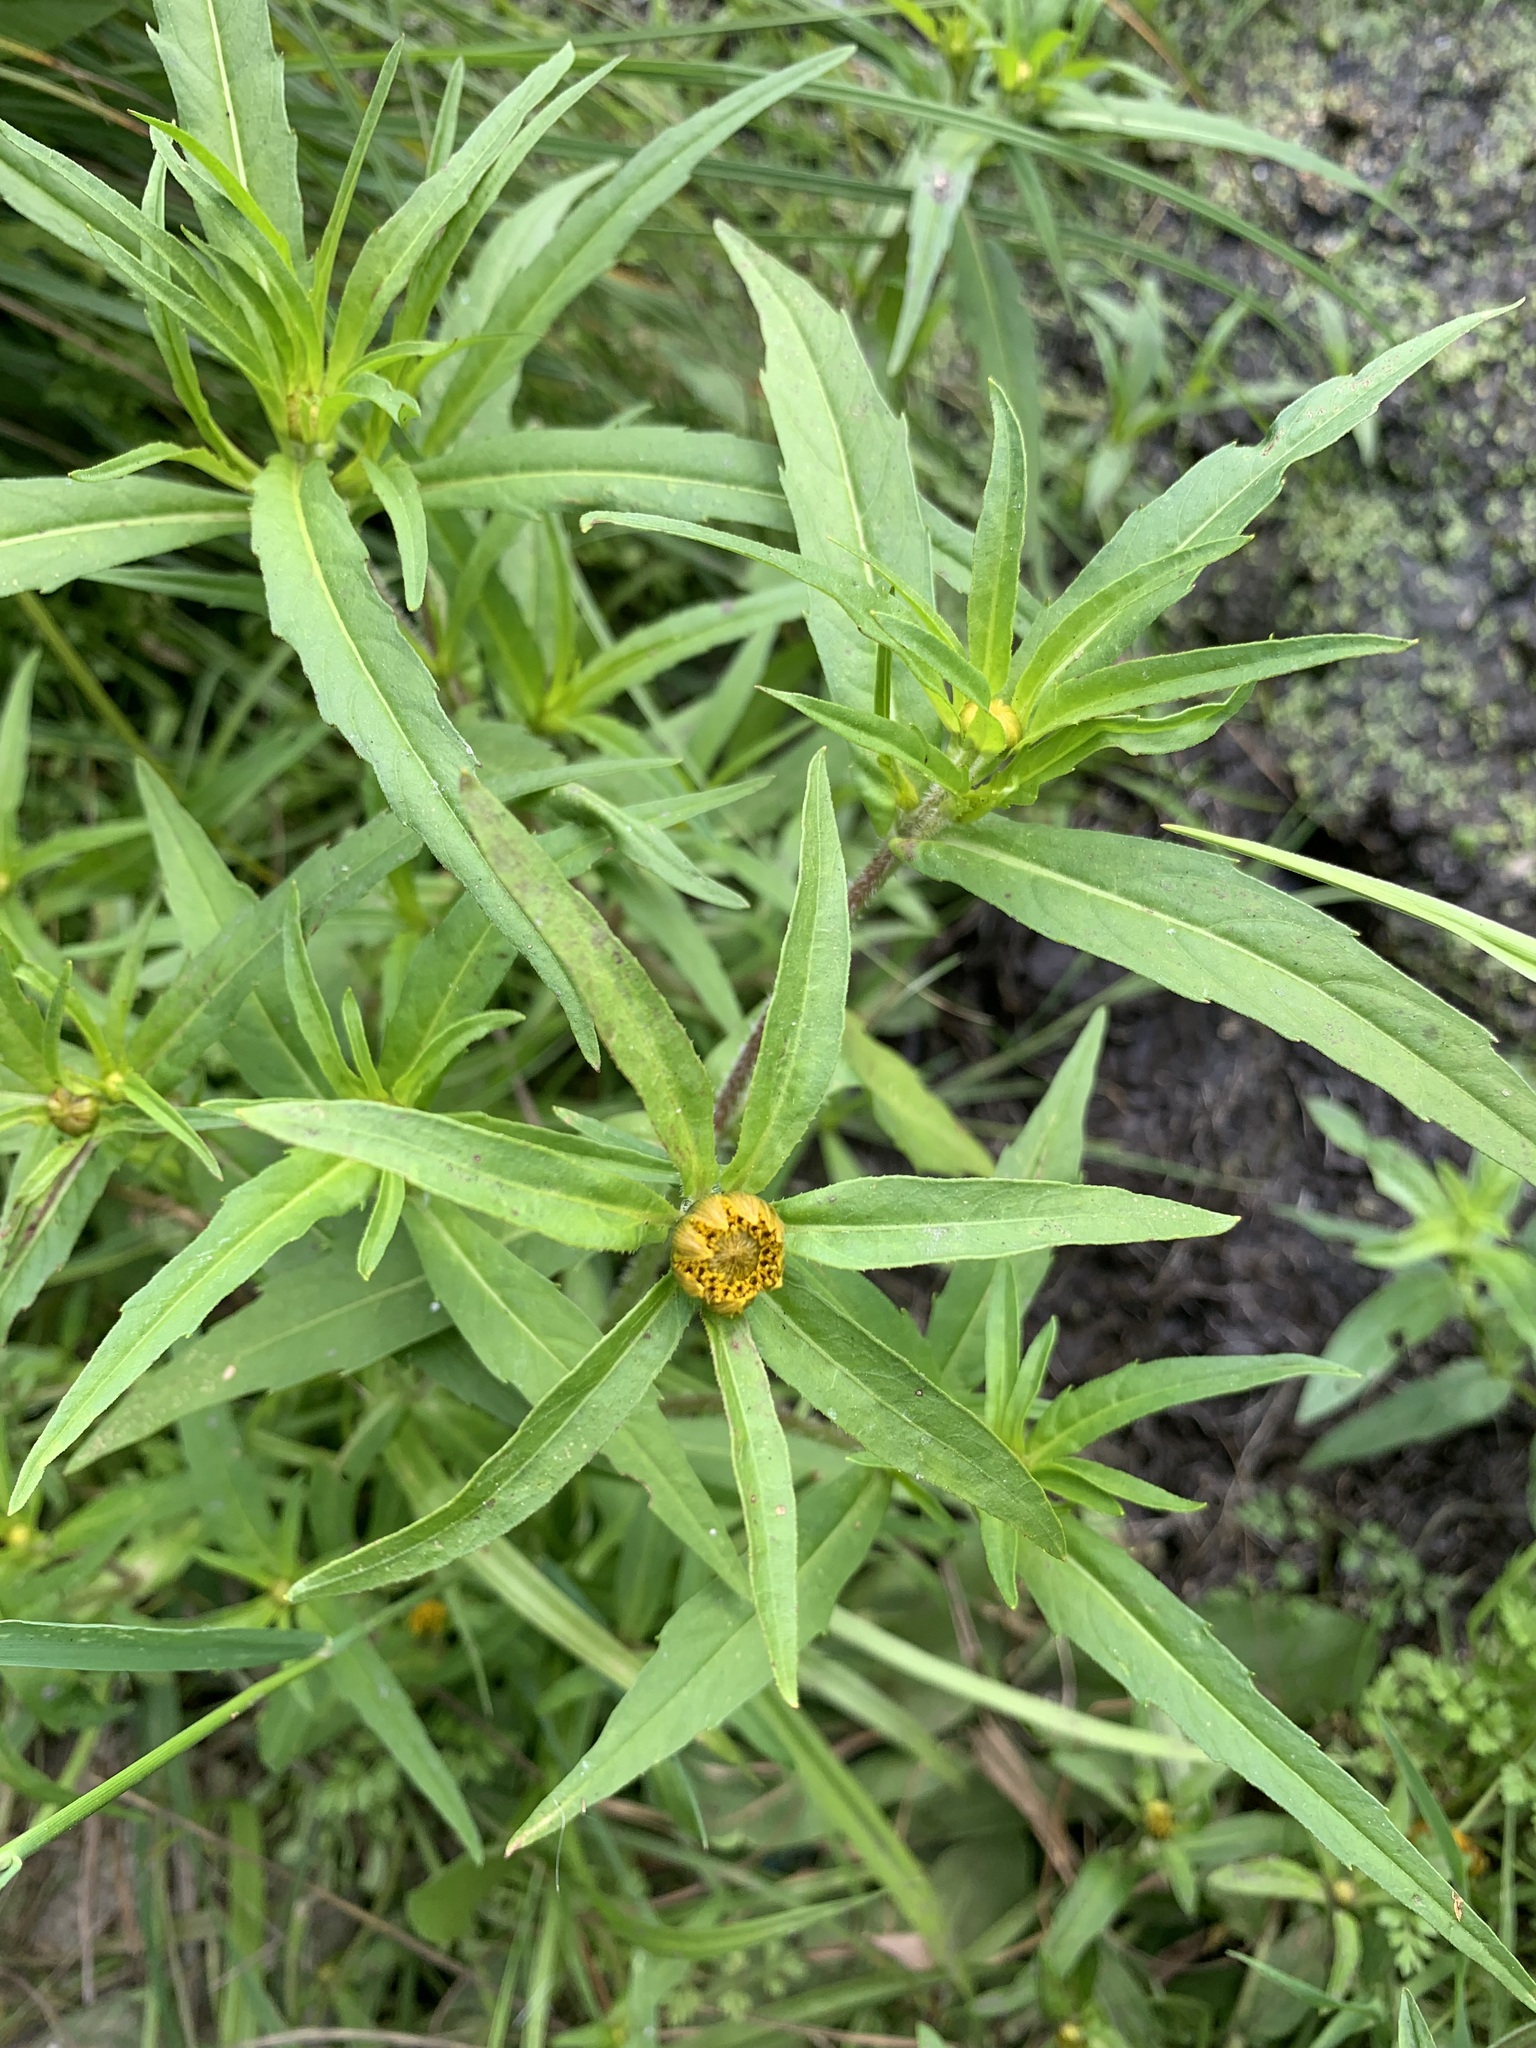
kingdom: Plantae
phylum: Tracheophyta
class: Magnoliopsida
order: Asterales
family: Asteraceae
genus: Bidens
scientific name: Bidens cernua
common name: Nodding bur-marigold
